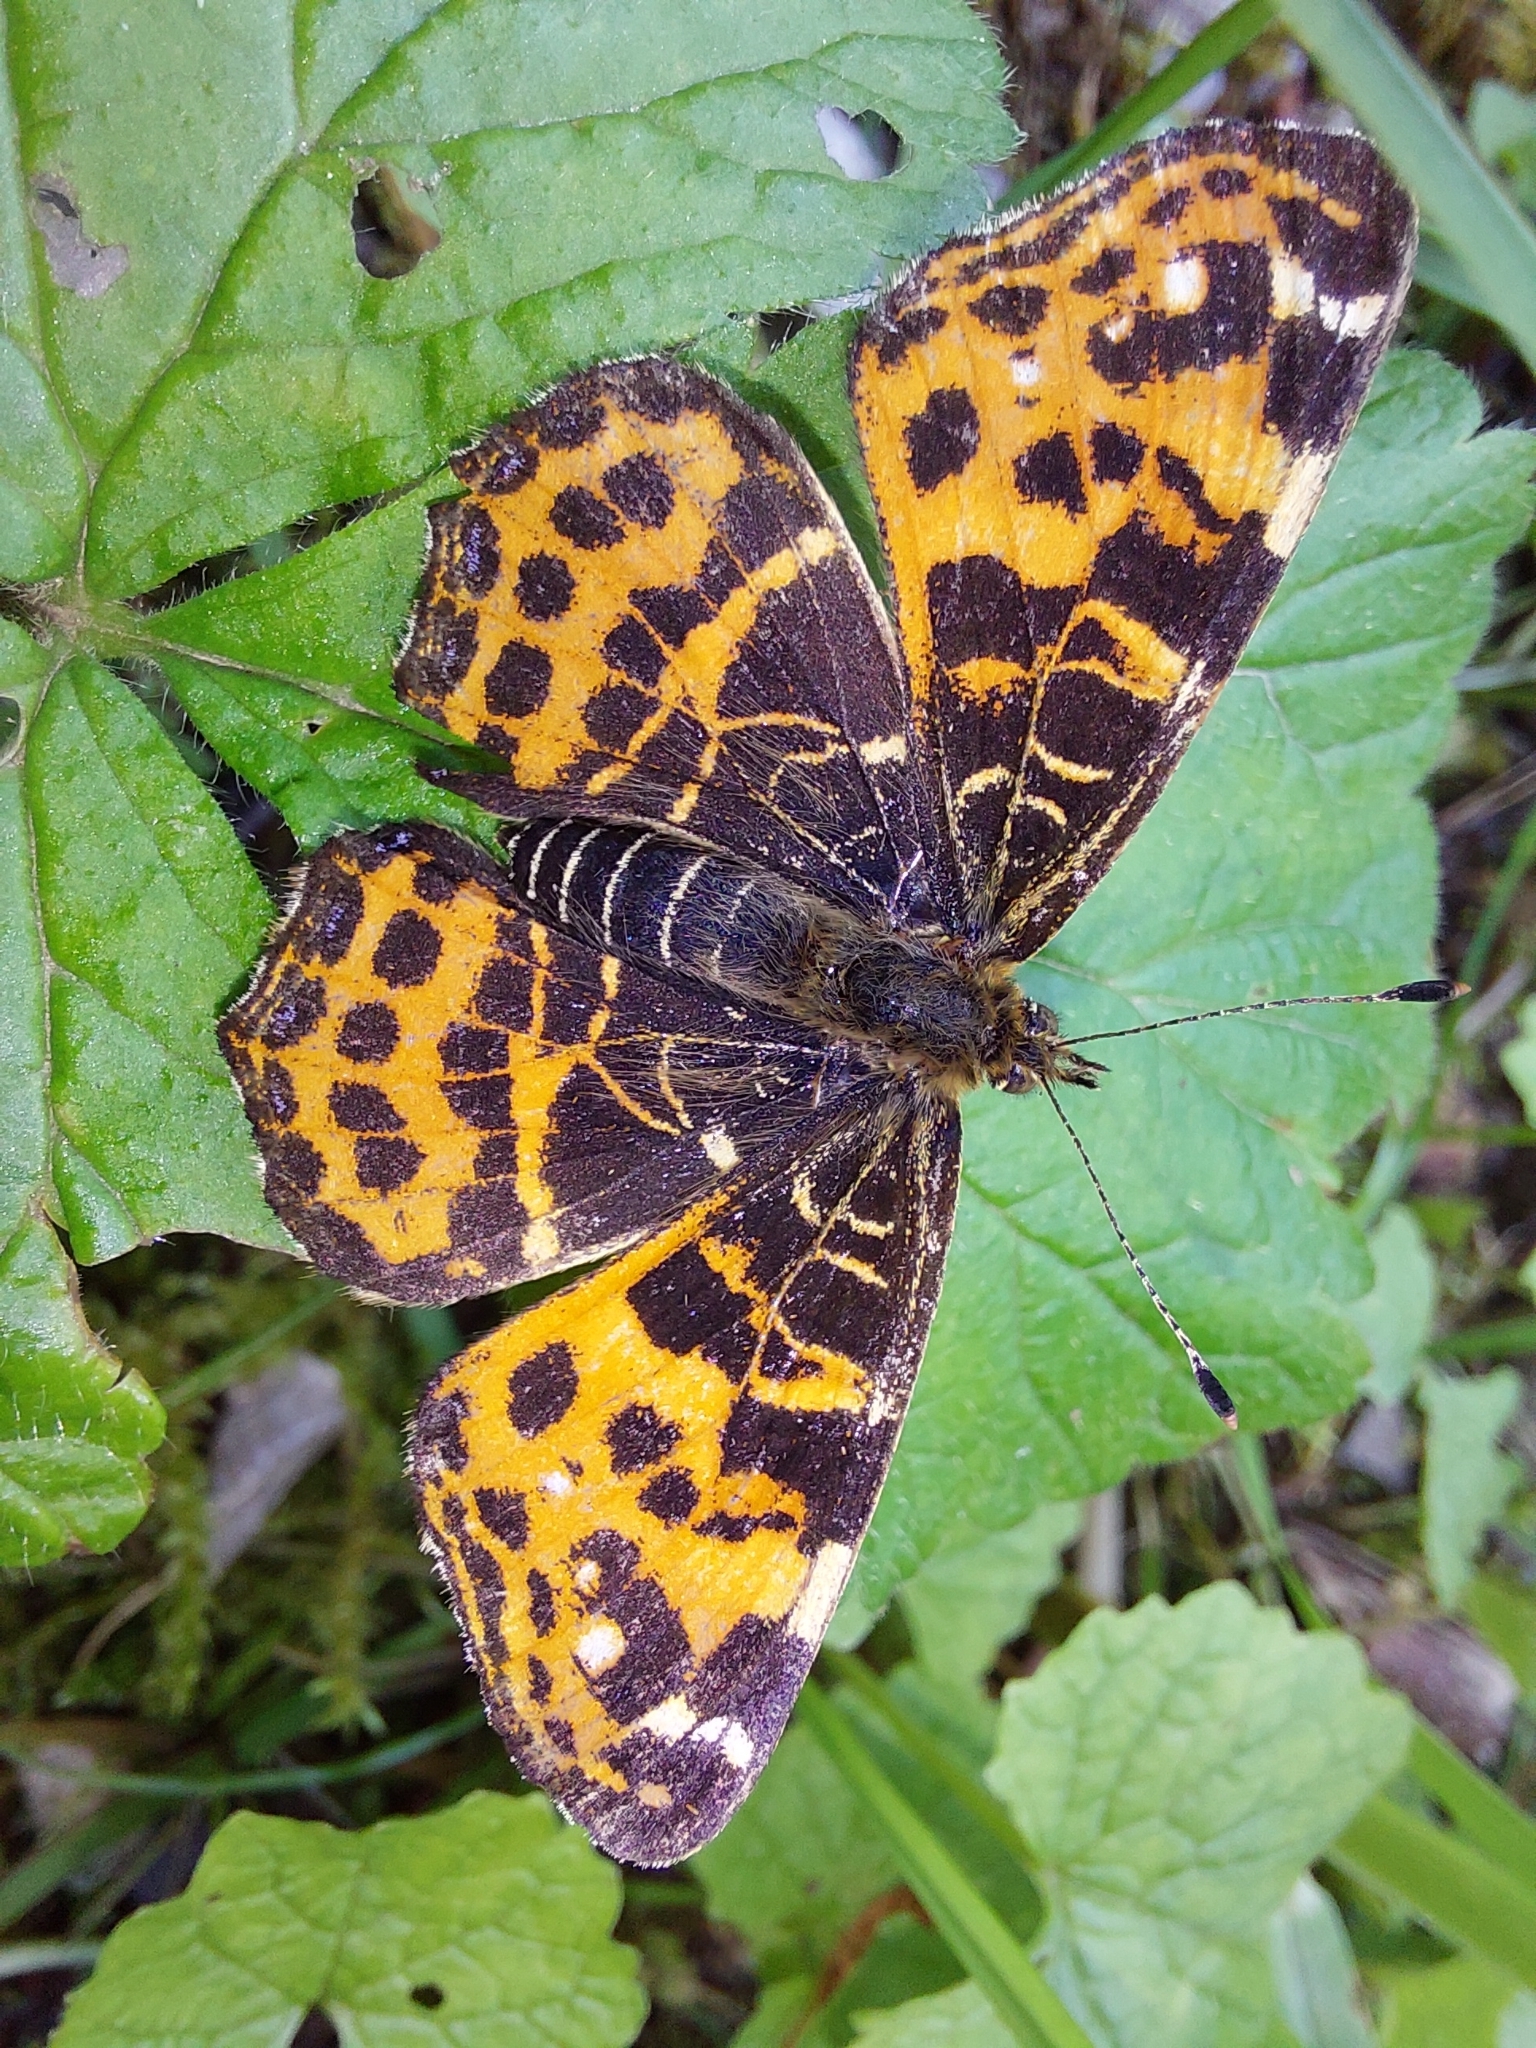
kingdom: Animalia
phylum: Arthropoda
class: Insecta
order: Lepidoptera
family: Nymphalidae
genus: Araschnia
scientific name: Araschnia levana
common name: Map butterfly
